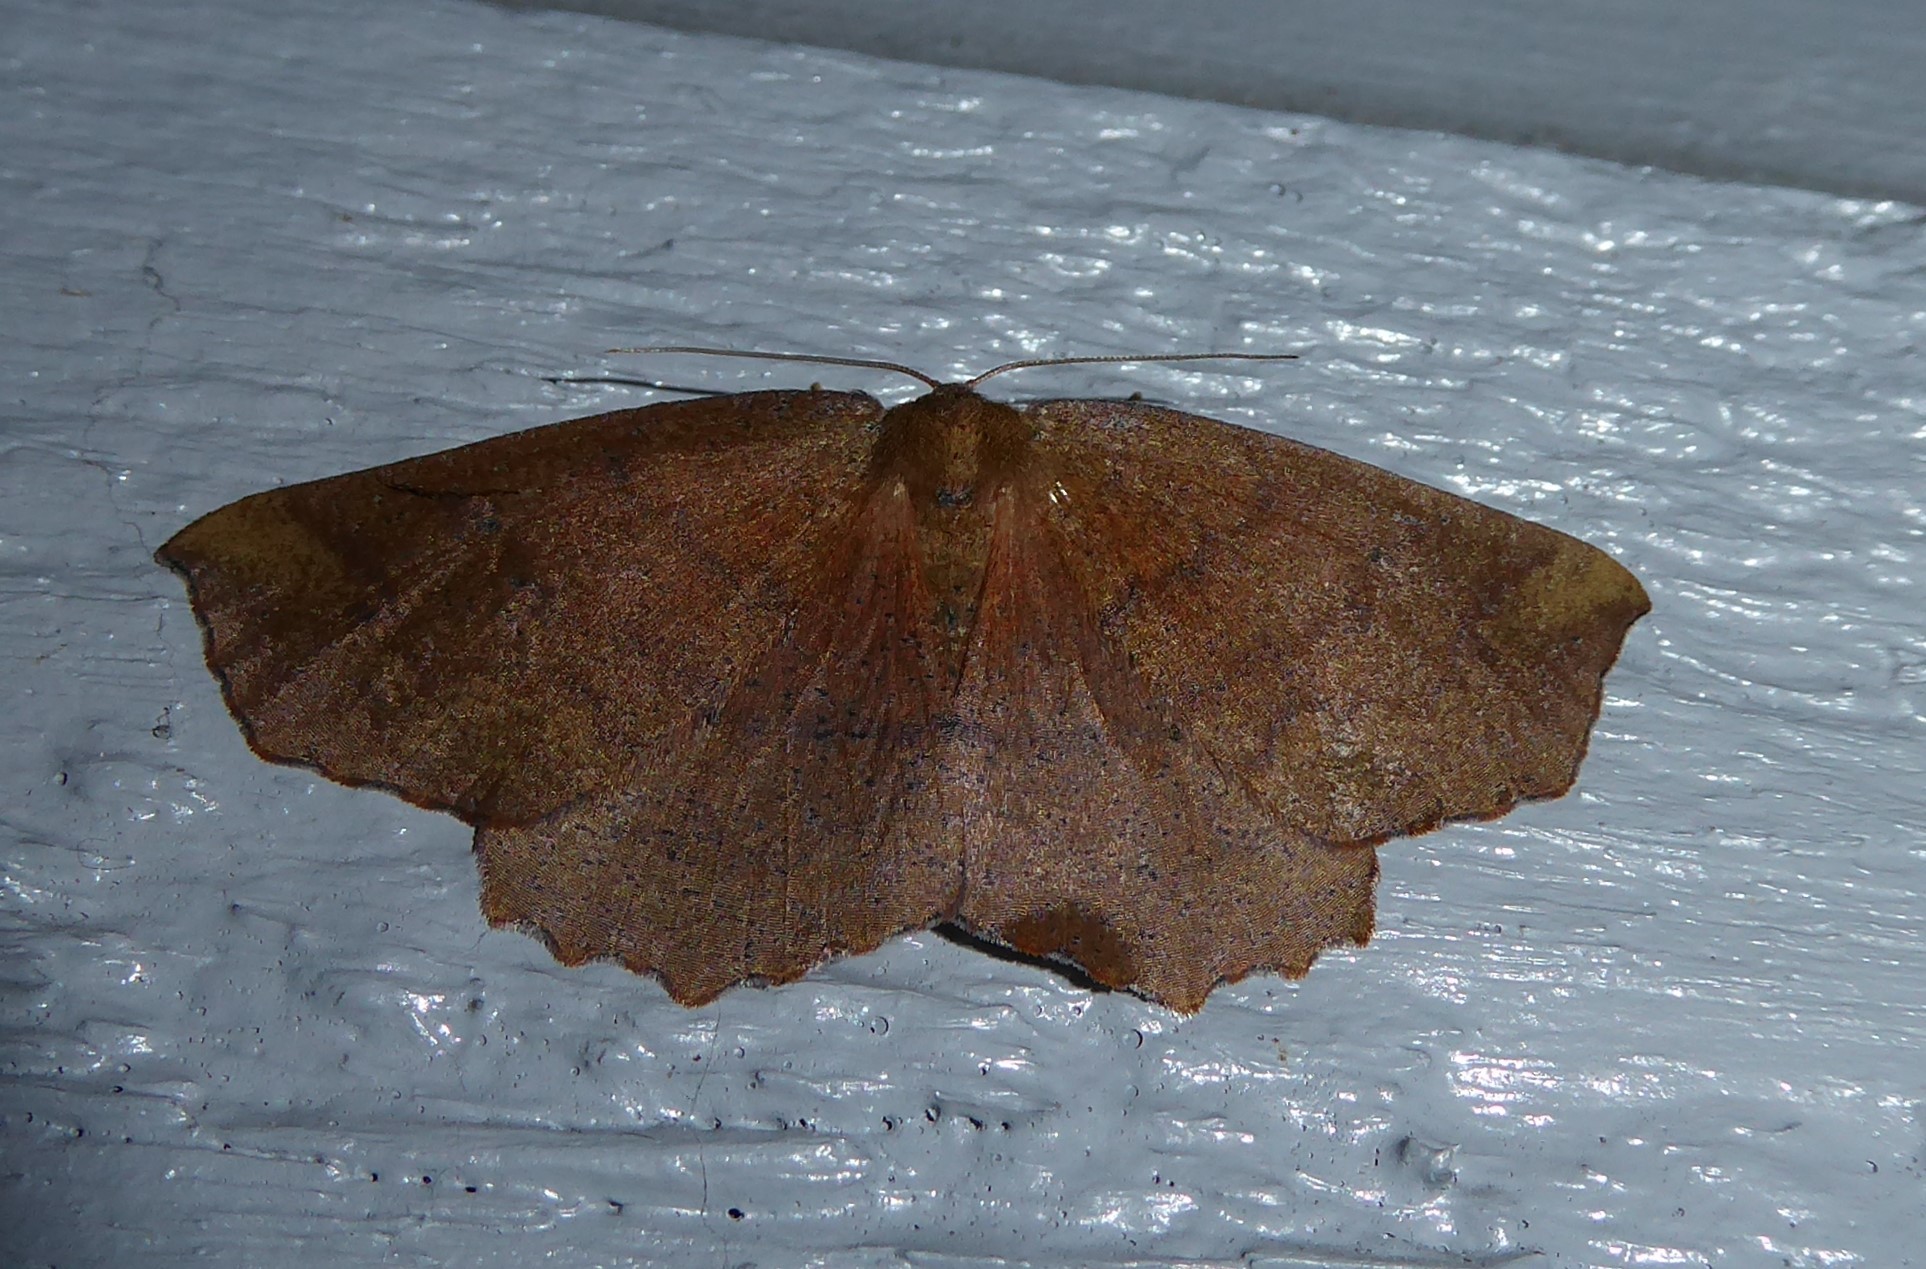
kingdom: Animalia
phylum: Arthropoda
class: Insecta
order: Lepidoptera
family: Geometridae
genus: Xyridacma
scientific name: Xyridacma ustaria
